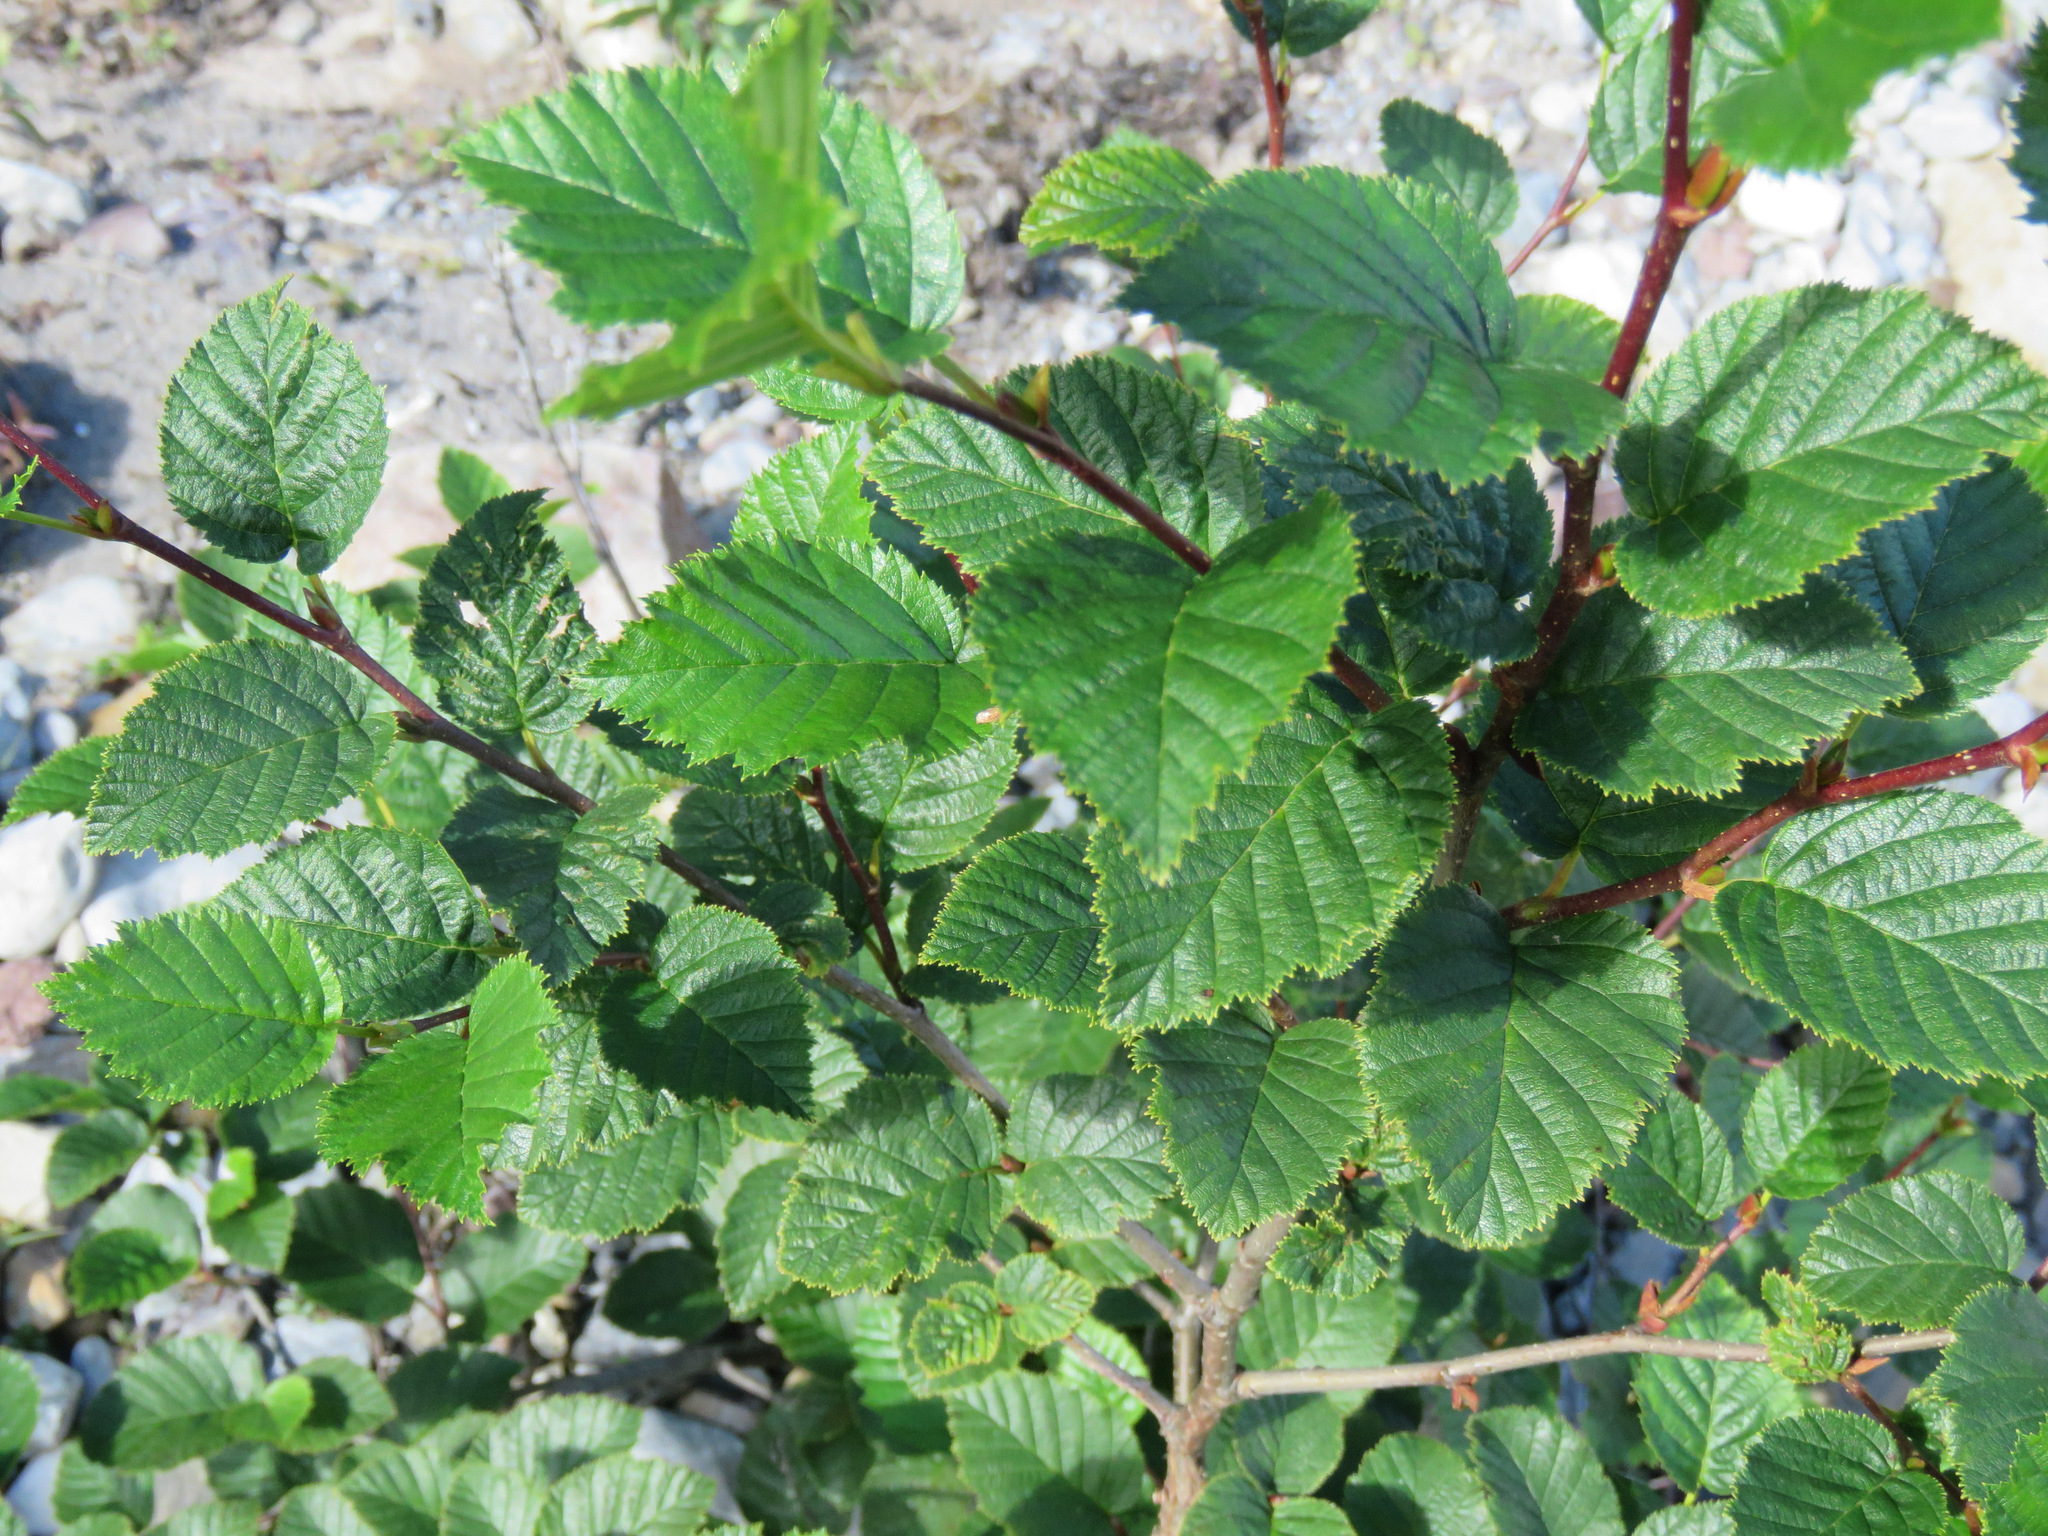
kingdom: Plantae
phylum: Tracheophyta
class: Magnoliopsida
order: Fagales
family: Betulaceae
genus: Alnus
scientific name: Alnus alnobetula
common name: Green alder
